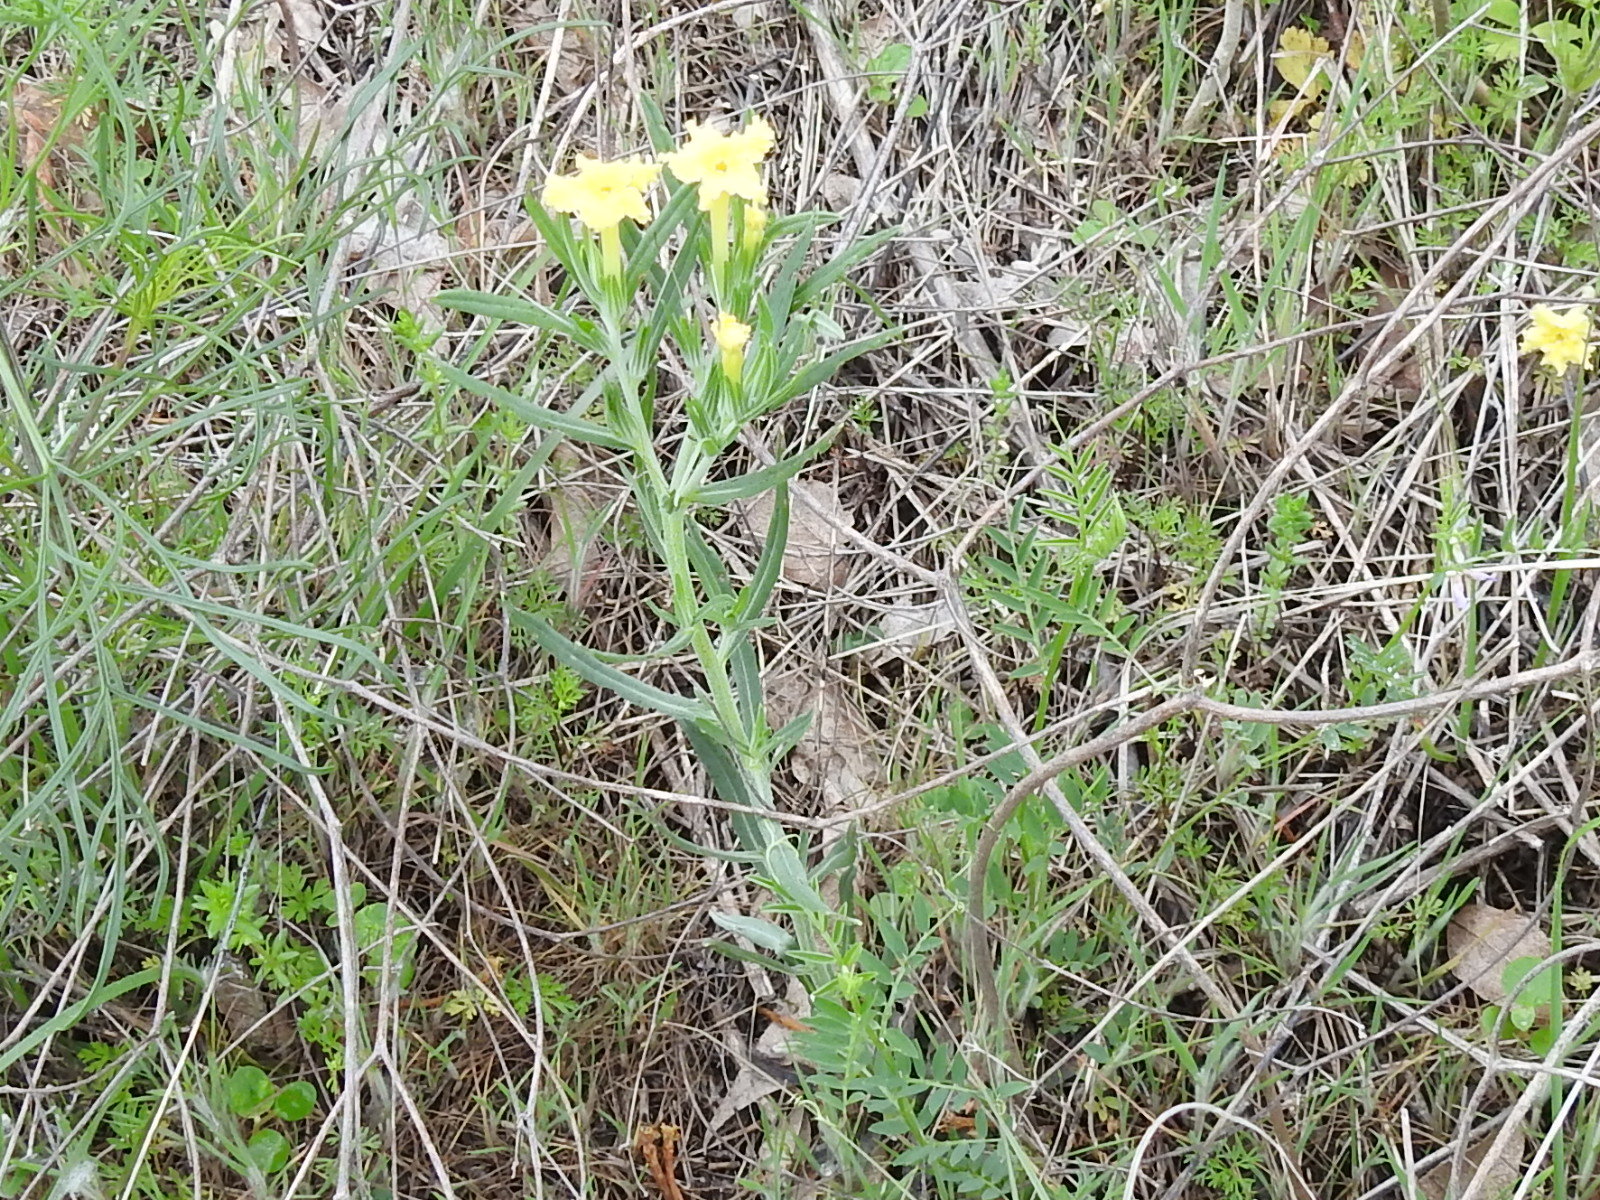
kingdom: Plantae
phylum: Tracheophyta
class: Magnoliopsida
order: Boraginales
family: Boraginaceae
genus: Lithospermum
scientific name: Lithospermum incisum
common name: Fringed gromwell
